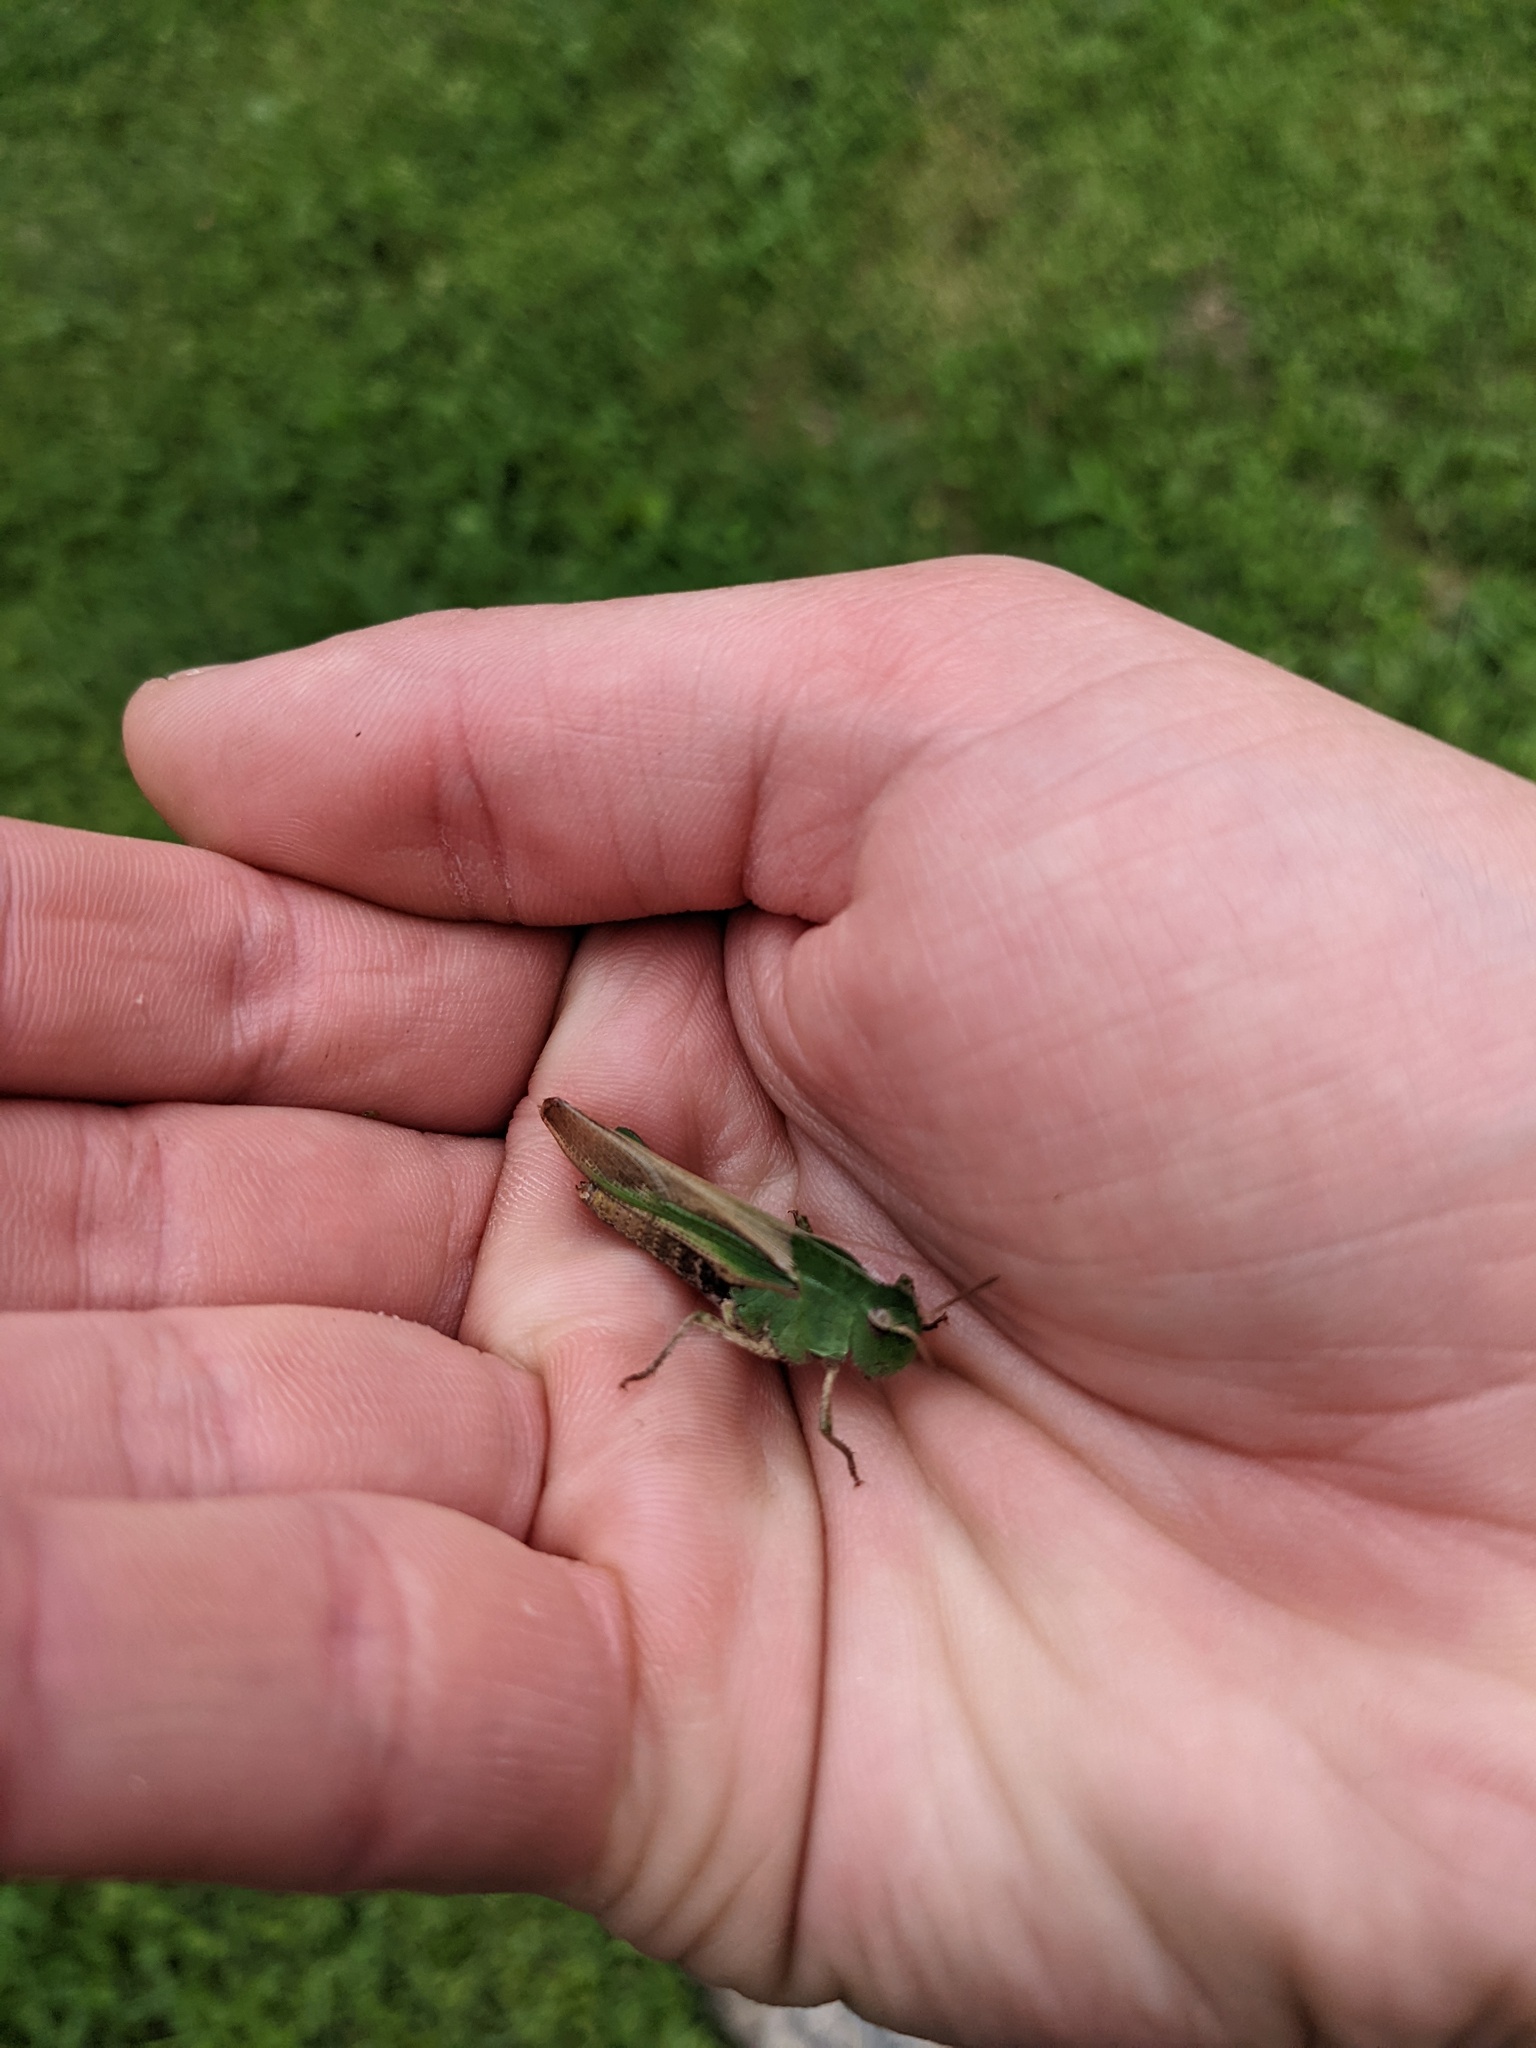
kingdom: Animalia
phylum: Arthropoda
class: Insecta
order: Orthoptera
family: Acrididae
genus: Chortophaga
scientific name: Chortophaga viridifasciata
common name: Green-striped grasshopper
